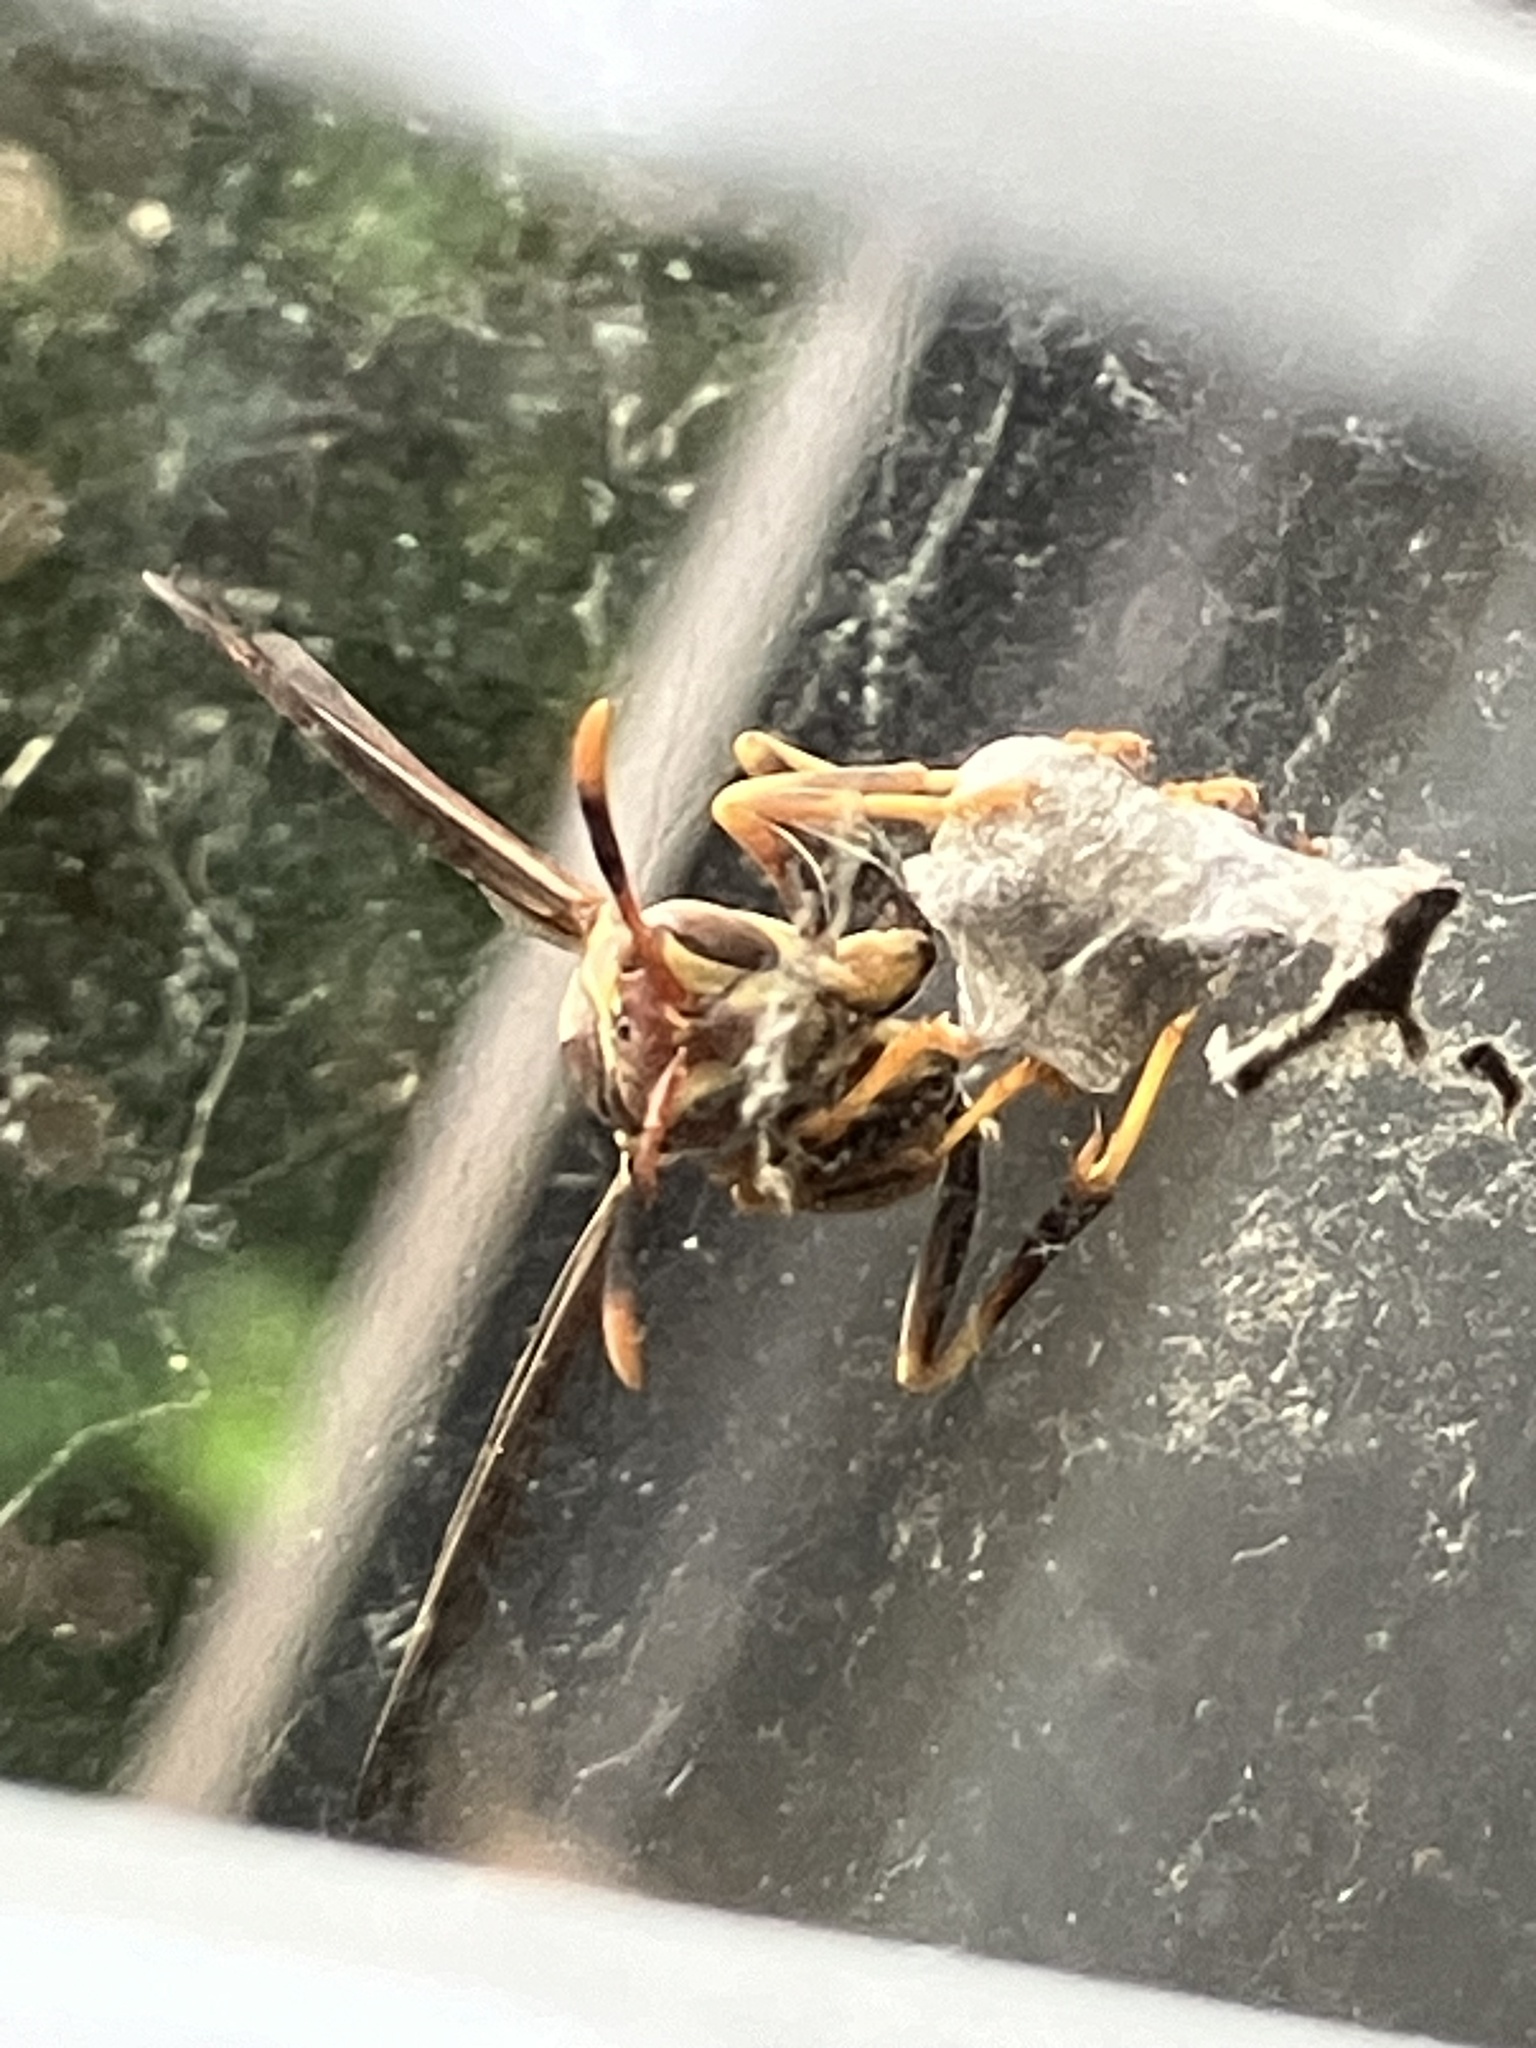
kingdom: Animalia
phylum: Arthropoda
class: Insecta
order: Hymenoptera
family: Eumenidae
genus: Polistes
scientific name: Polistes exclamans
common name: Paper wasp
